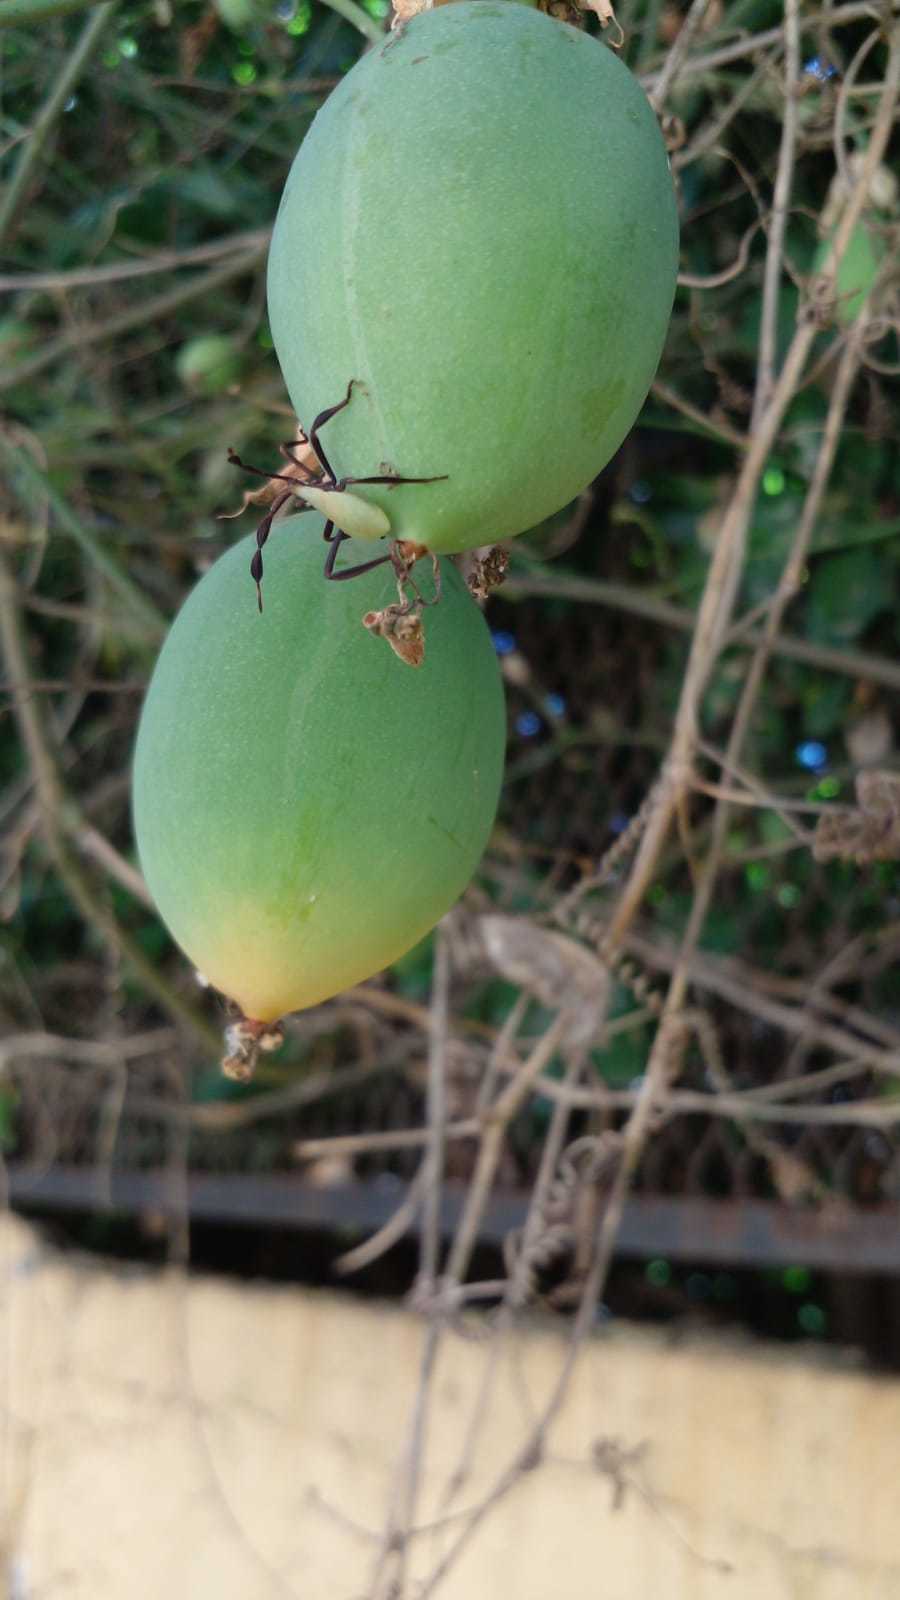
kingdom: Animalia
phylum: Arthropoda
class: Insecta
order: Hemiptera
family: Coreidae
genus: Holhymenia
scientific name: Holhymenia histrio
